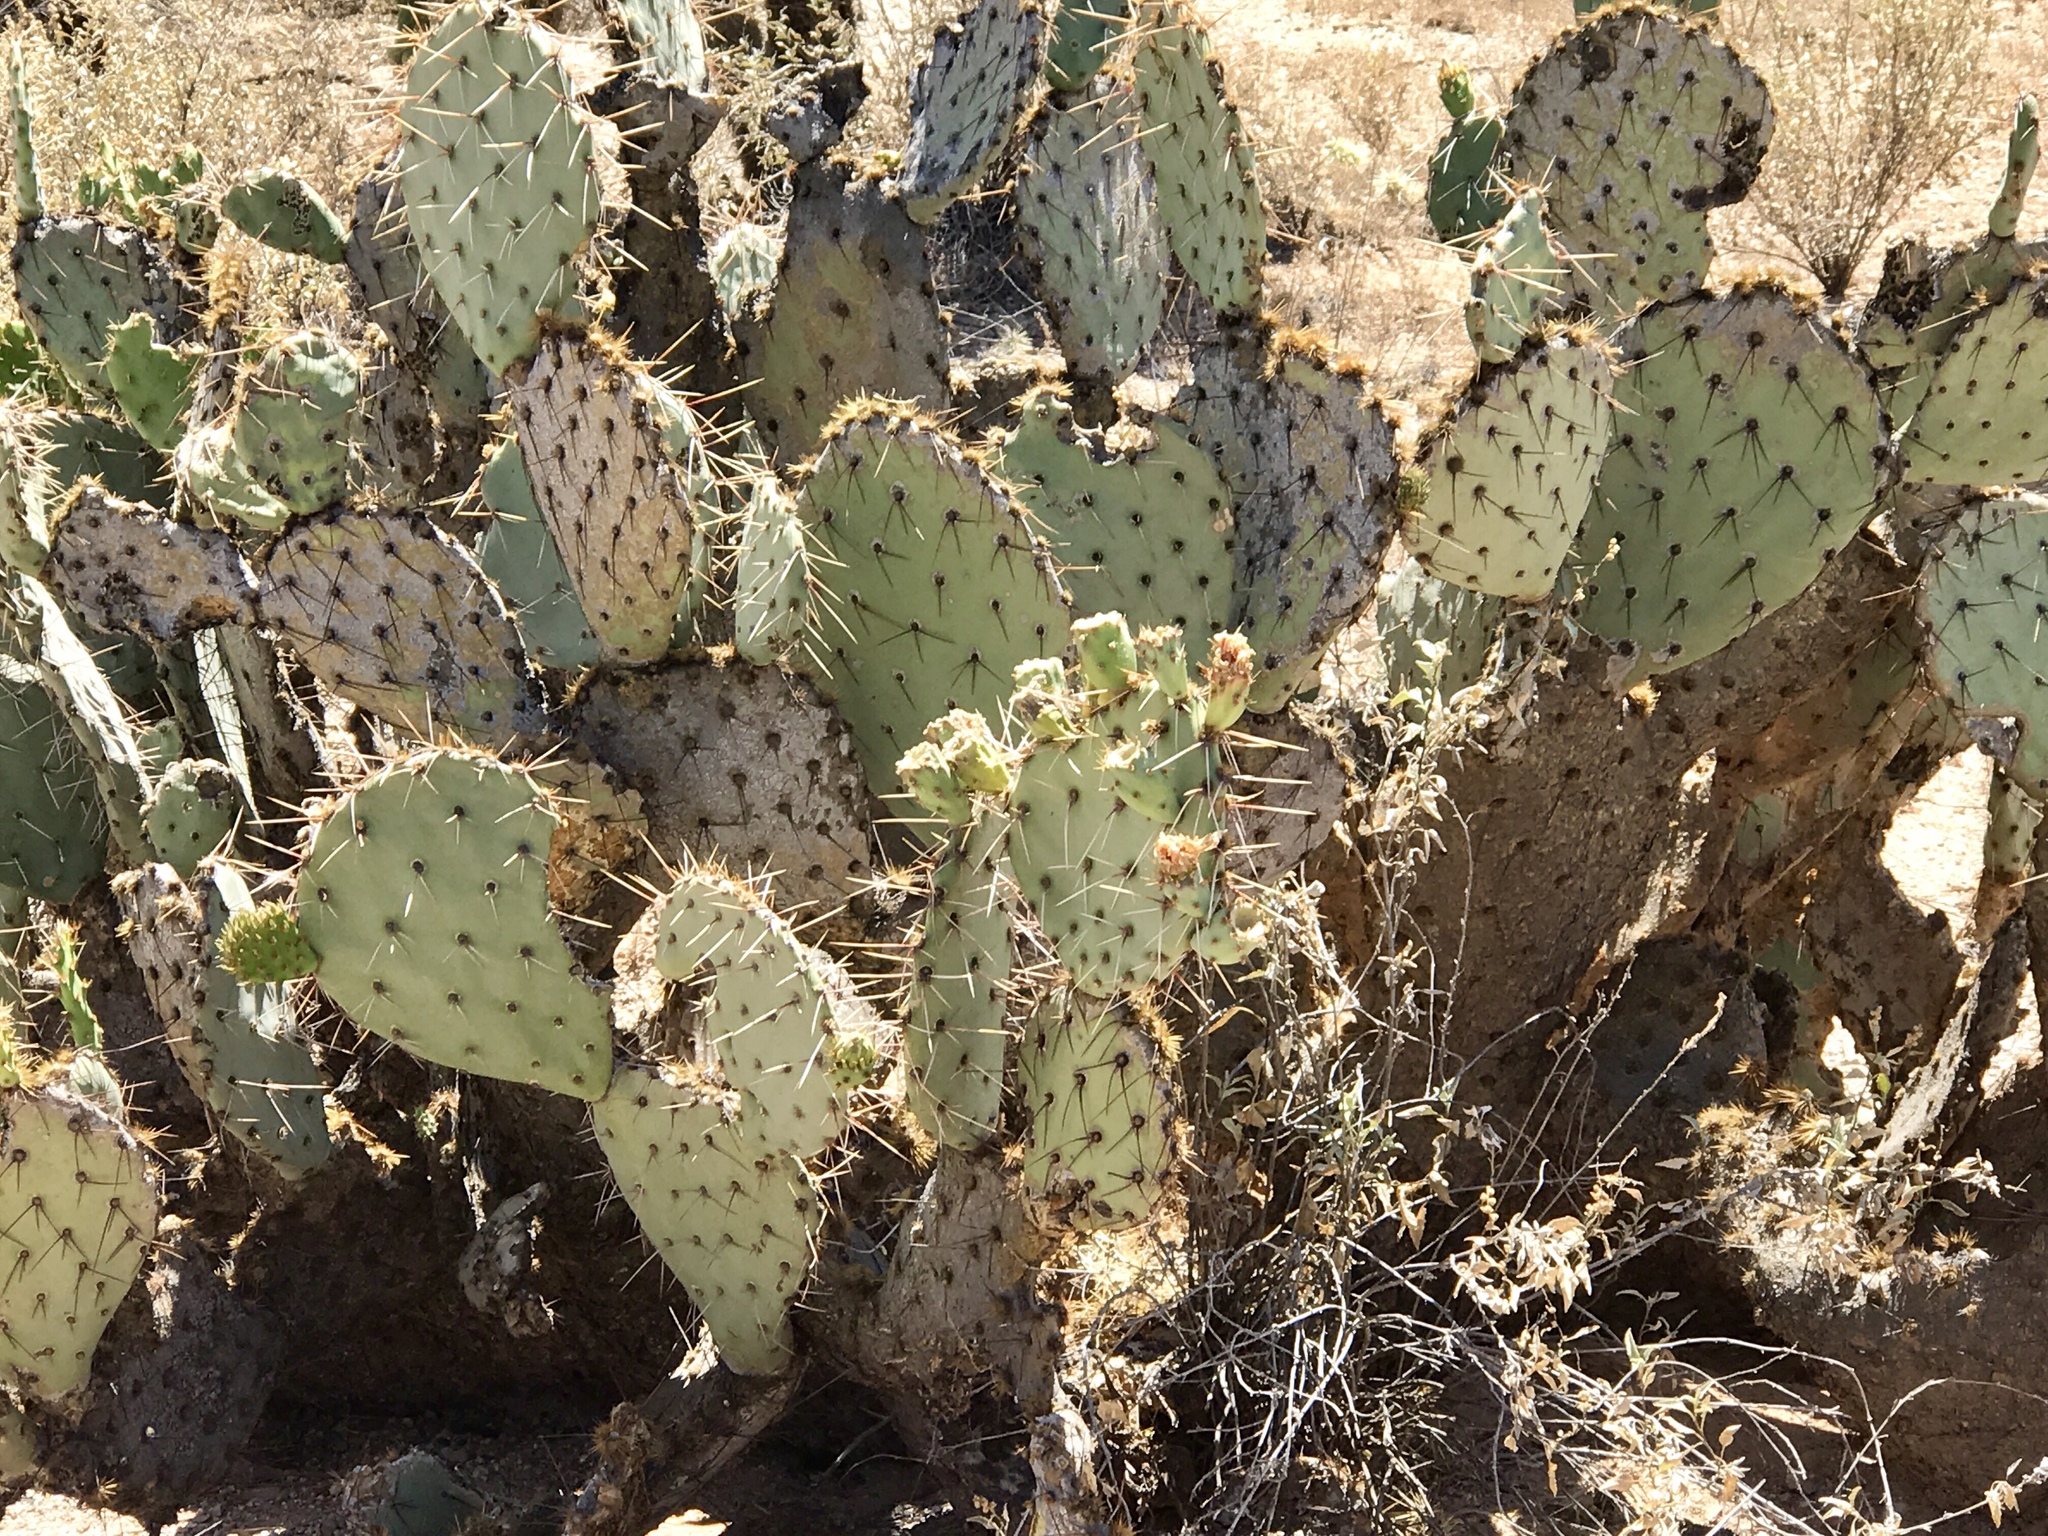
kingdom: Plantae
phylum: Tracheophyta
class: Magnoliopsida
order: Caryophyllales
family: Cactaceae
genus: Opuntia
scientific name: Opuntia engelmannii
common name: Cactus-apple
